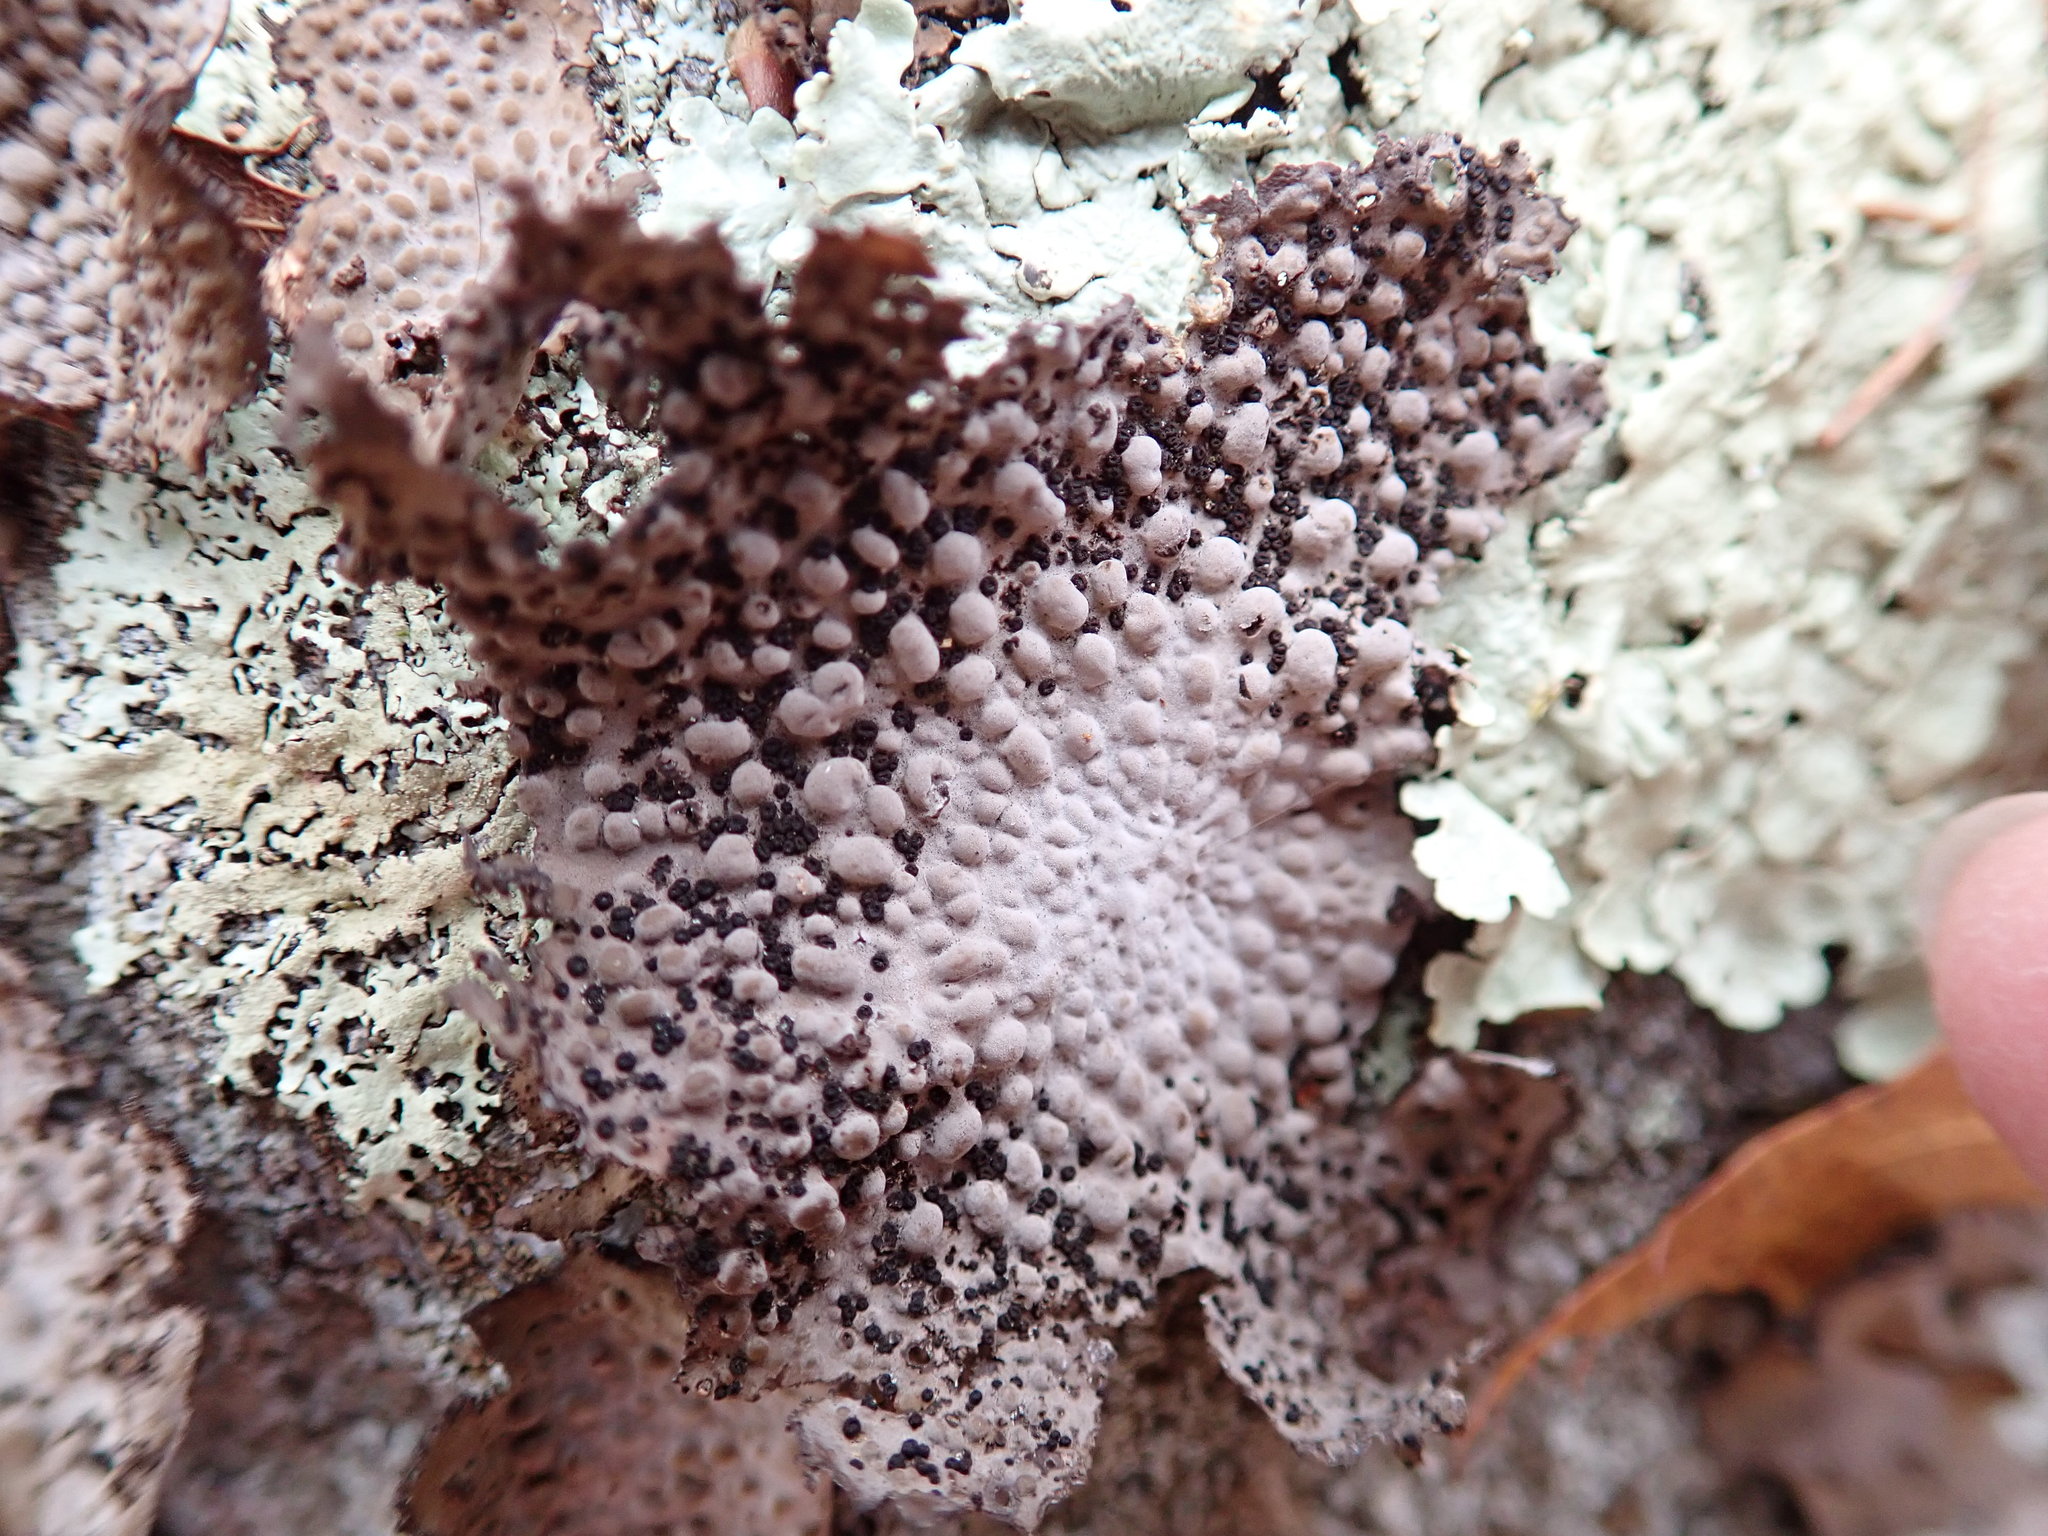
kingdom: Fungi
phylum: Ascomycota
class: Lecanoromycetes
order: Umbilicariales
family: Umbilicariaceae
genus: Lasallia
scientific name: Lasallia papulosa
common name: Common toadskin lichen
